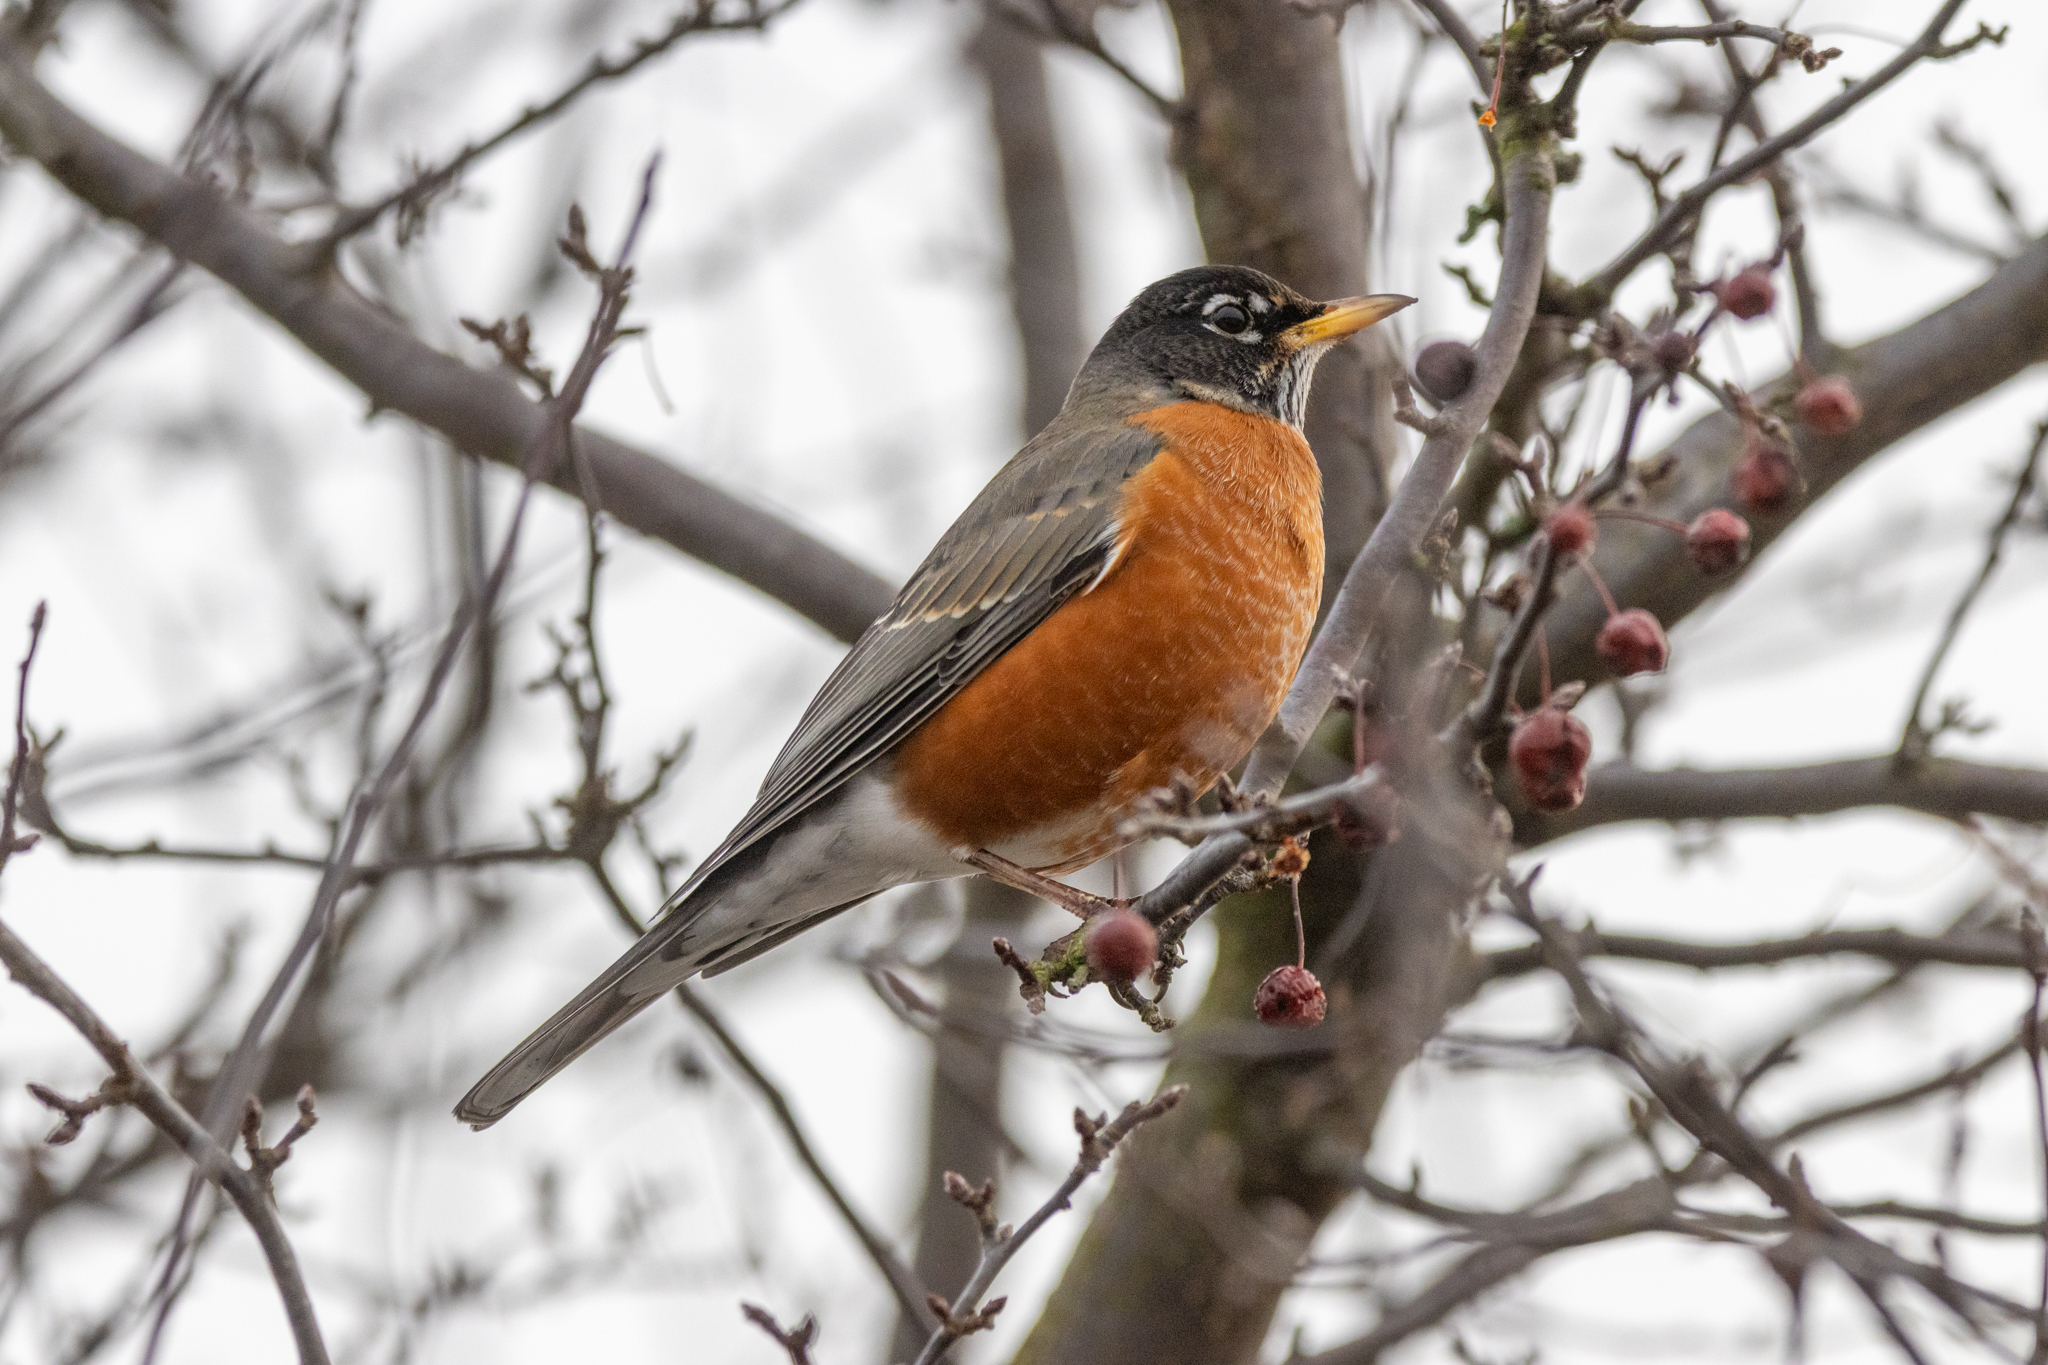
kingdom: Animalia
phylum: Chordata
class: Aves
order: Passeriformes
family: Turdidae
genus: Turdus
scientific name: Turdus migratorius
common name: American robin
